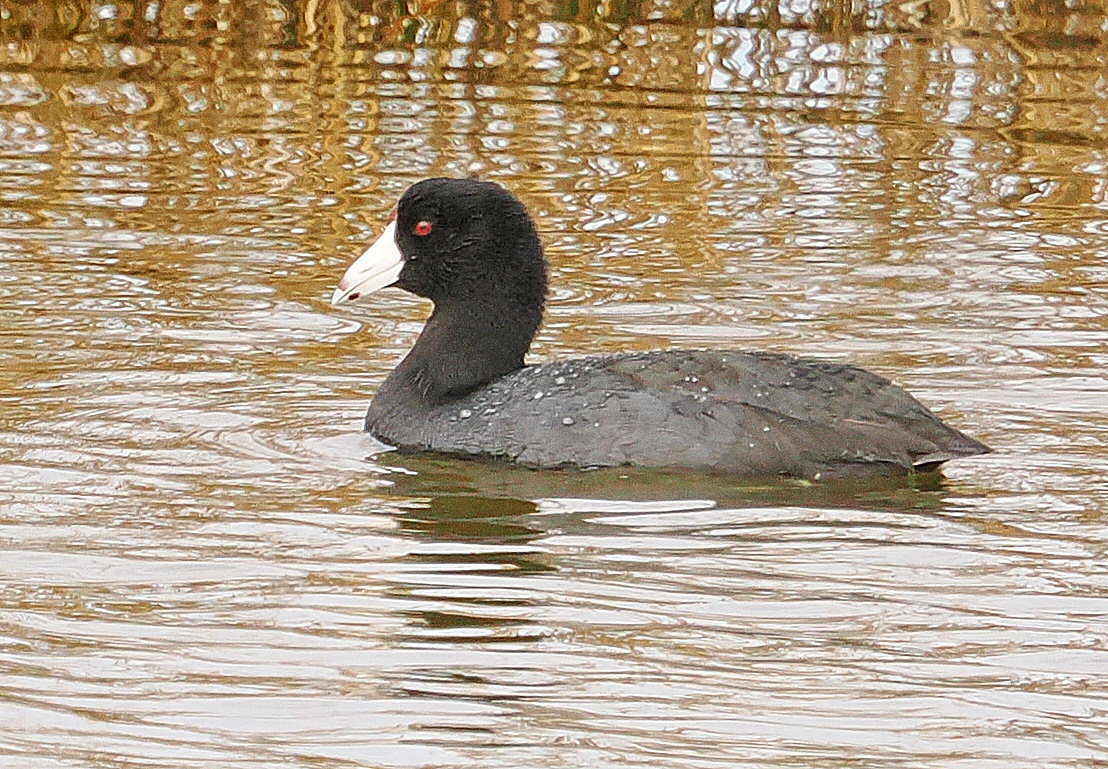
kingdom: Animalia
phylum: Chordata
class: Aves
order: Gruiformes
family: Rallidae
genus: Fulica
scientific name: Fulica americana
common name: American coot
